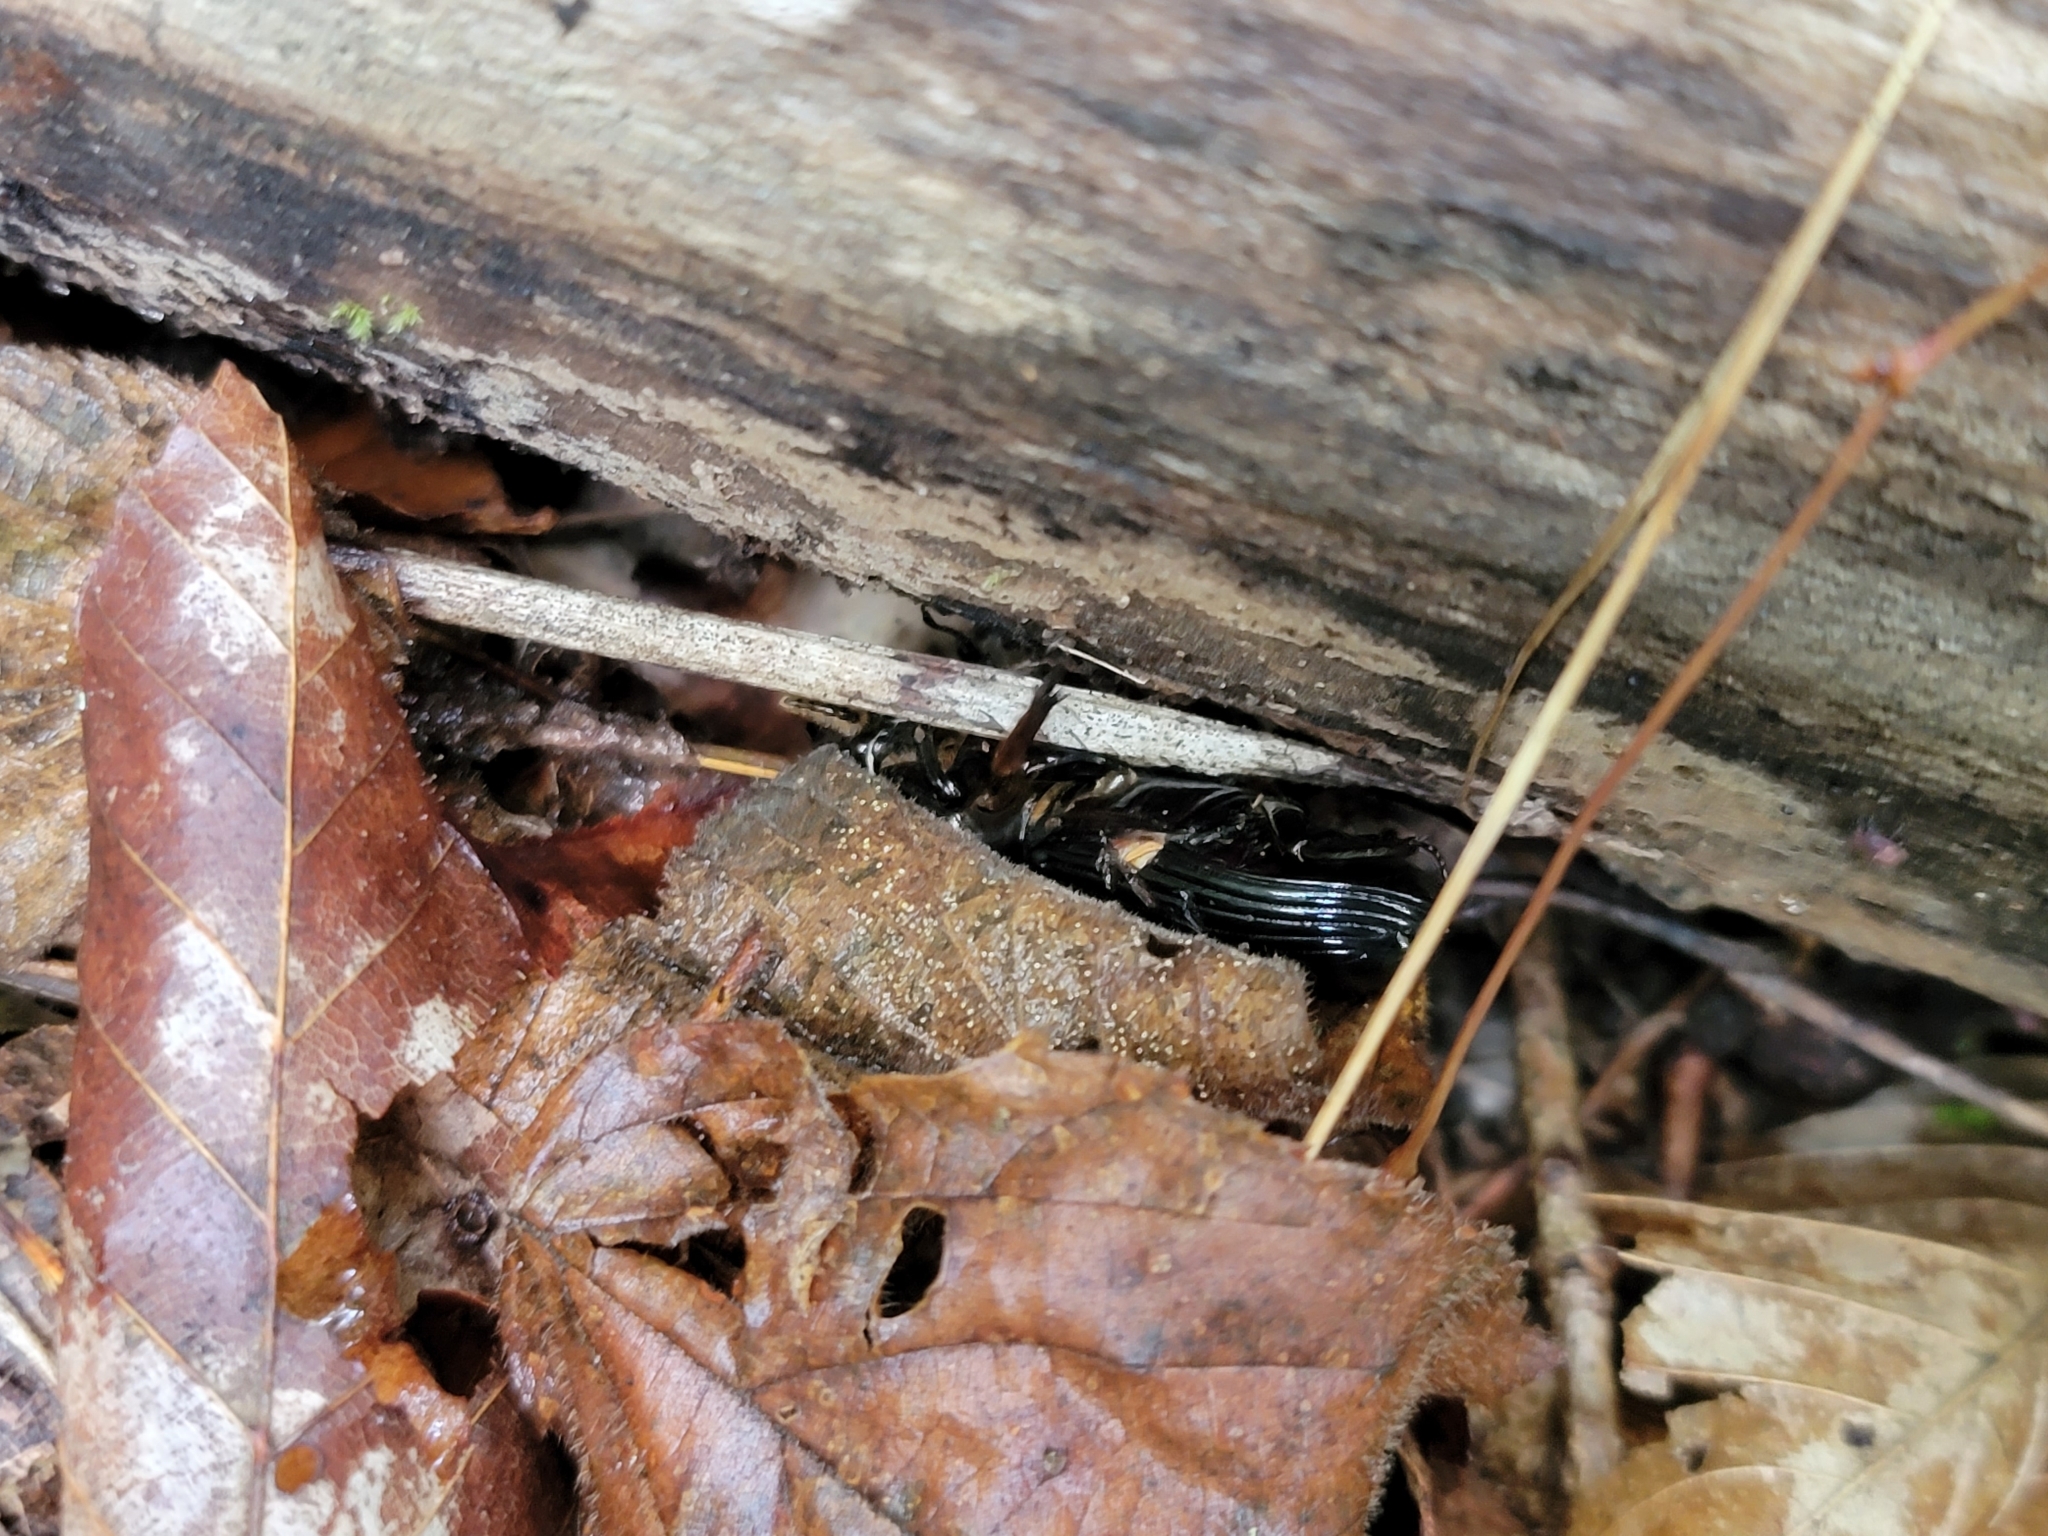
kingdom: Animalia
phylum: Arthropoda
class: Insecta
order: Coleoptera
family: Passalidae
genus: Odontotaenius
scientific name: Odontotaenius disjunctus
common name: Patent leather beetle
